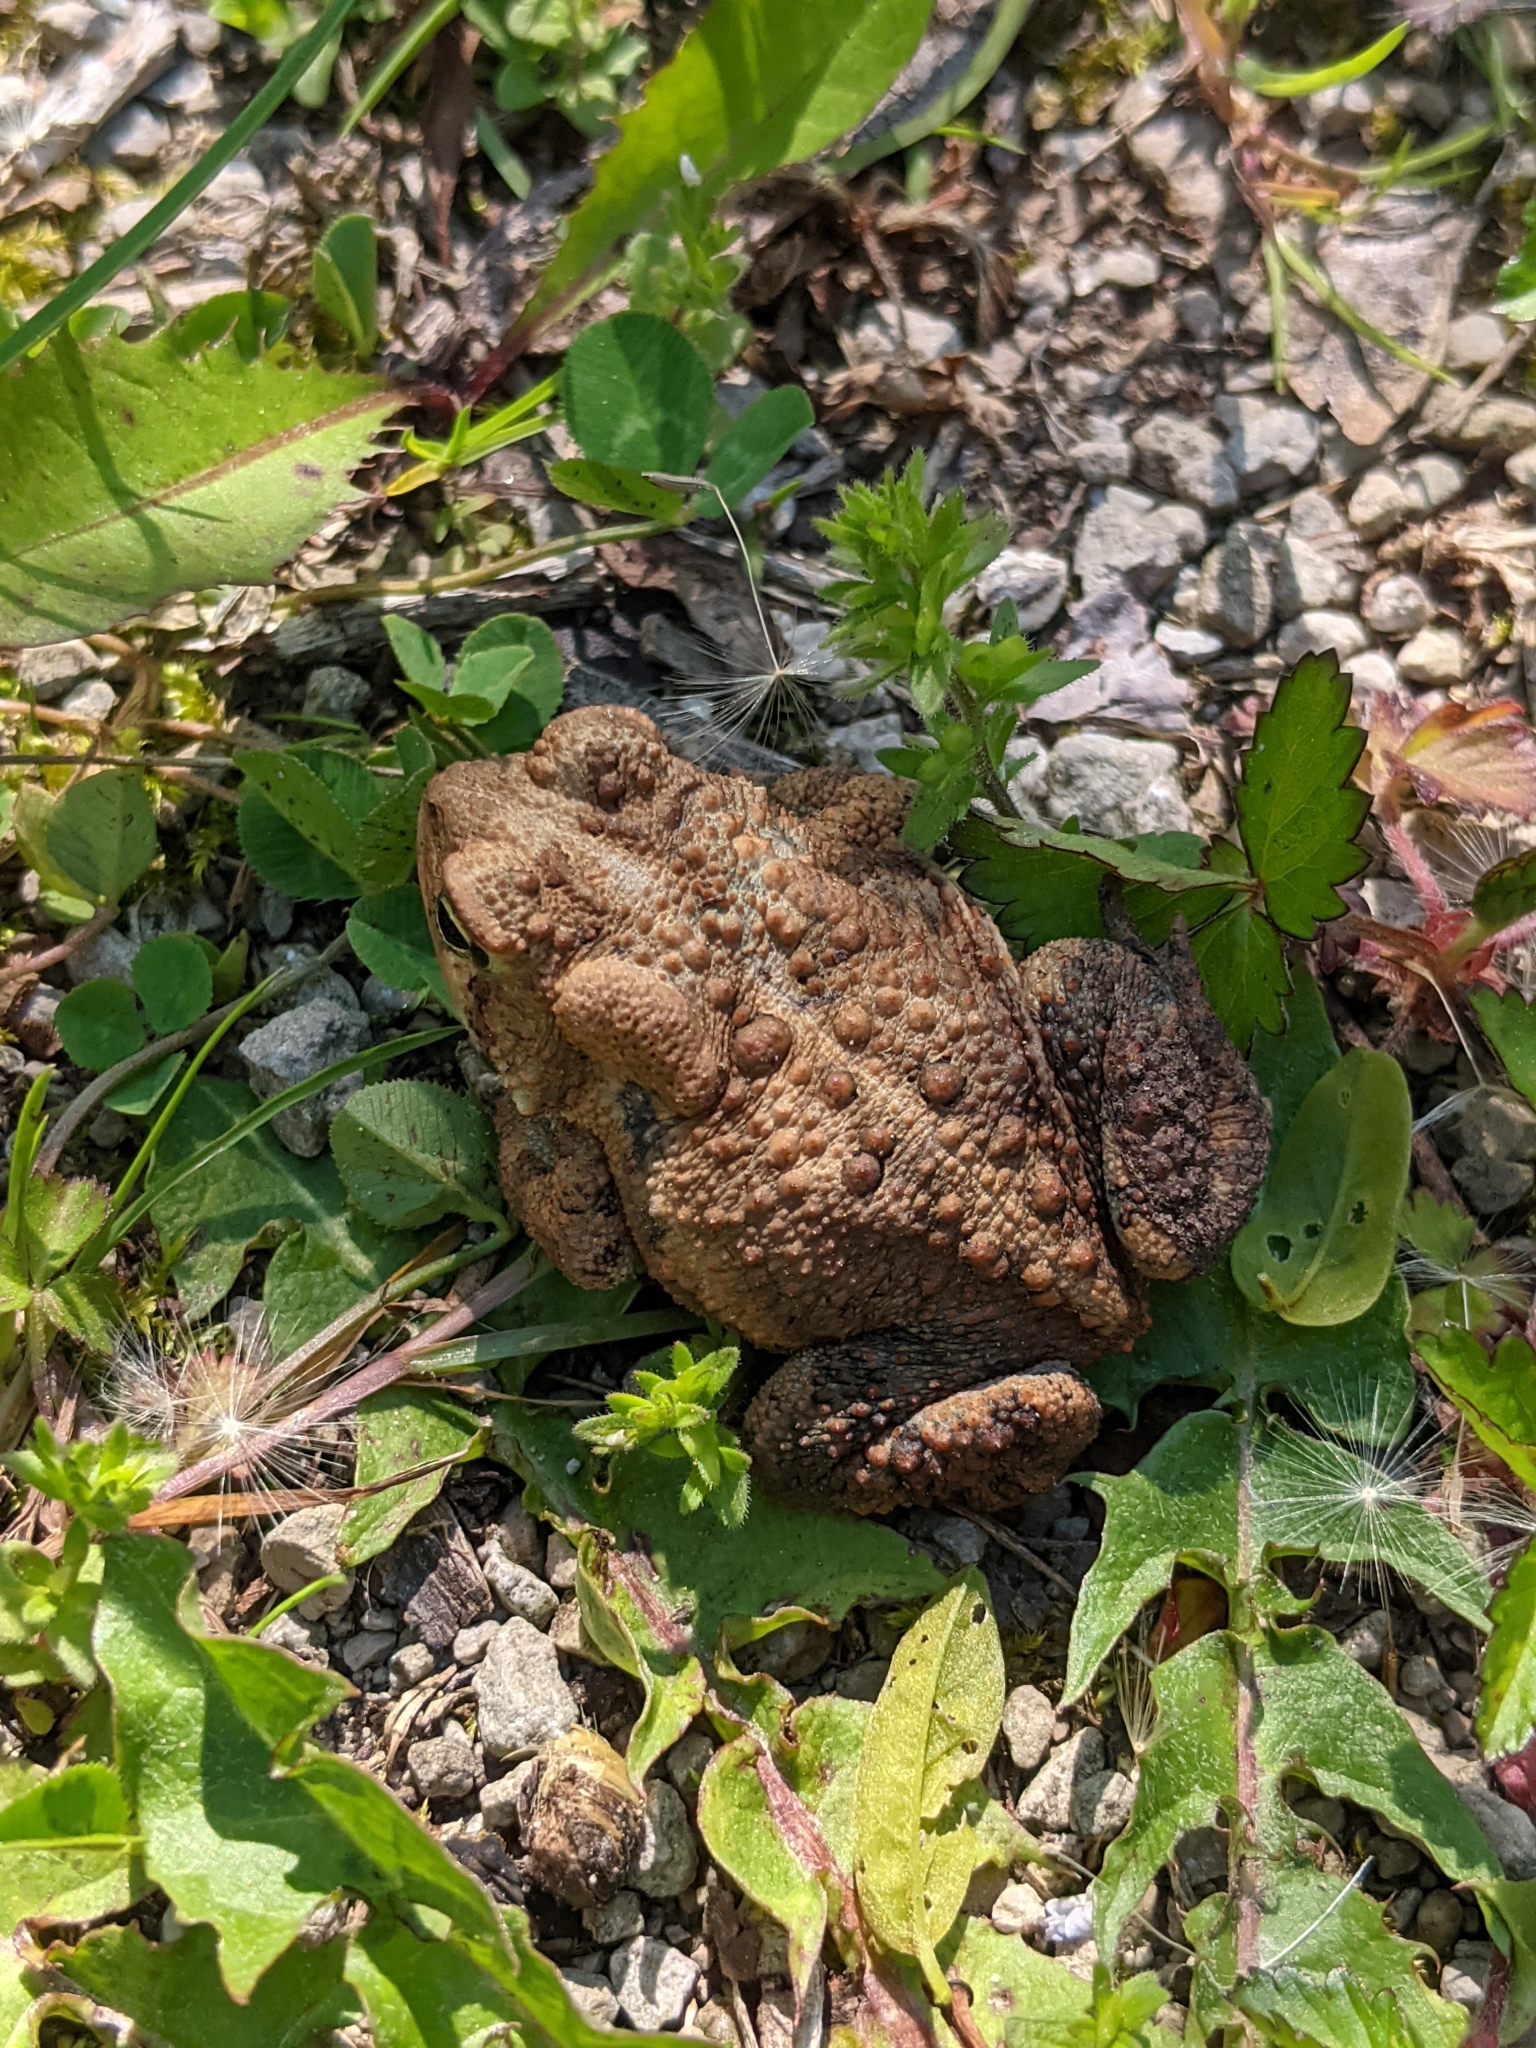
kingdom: Animalia
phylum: Chordata
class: Amphibia
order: Anura
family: Bufonidae
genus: Anaxyrus
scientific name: Anaxyrus americanus
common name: American toad
